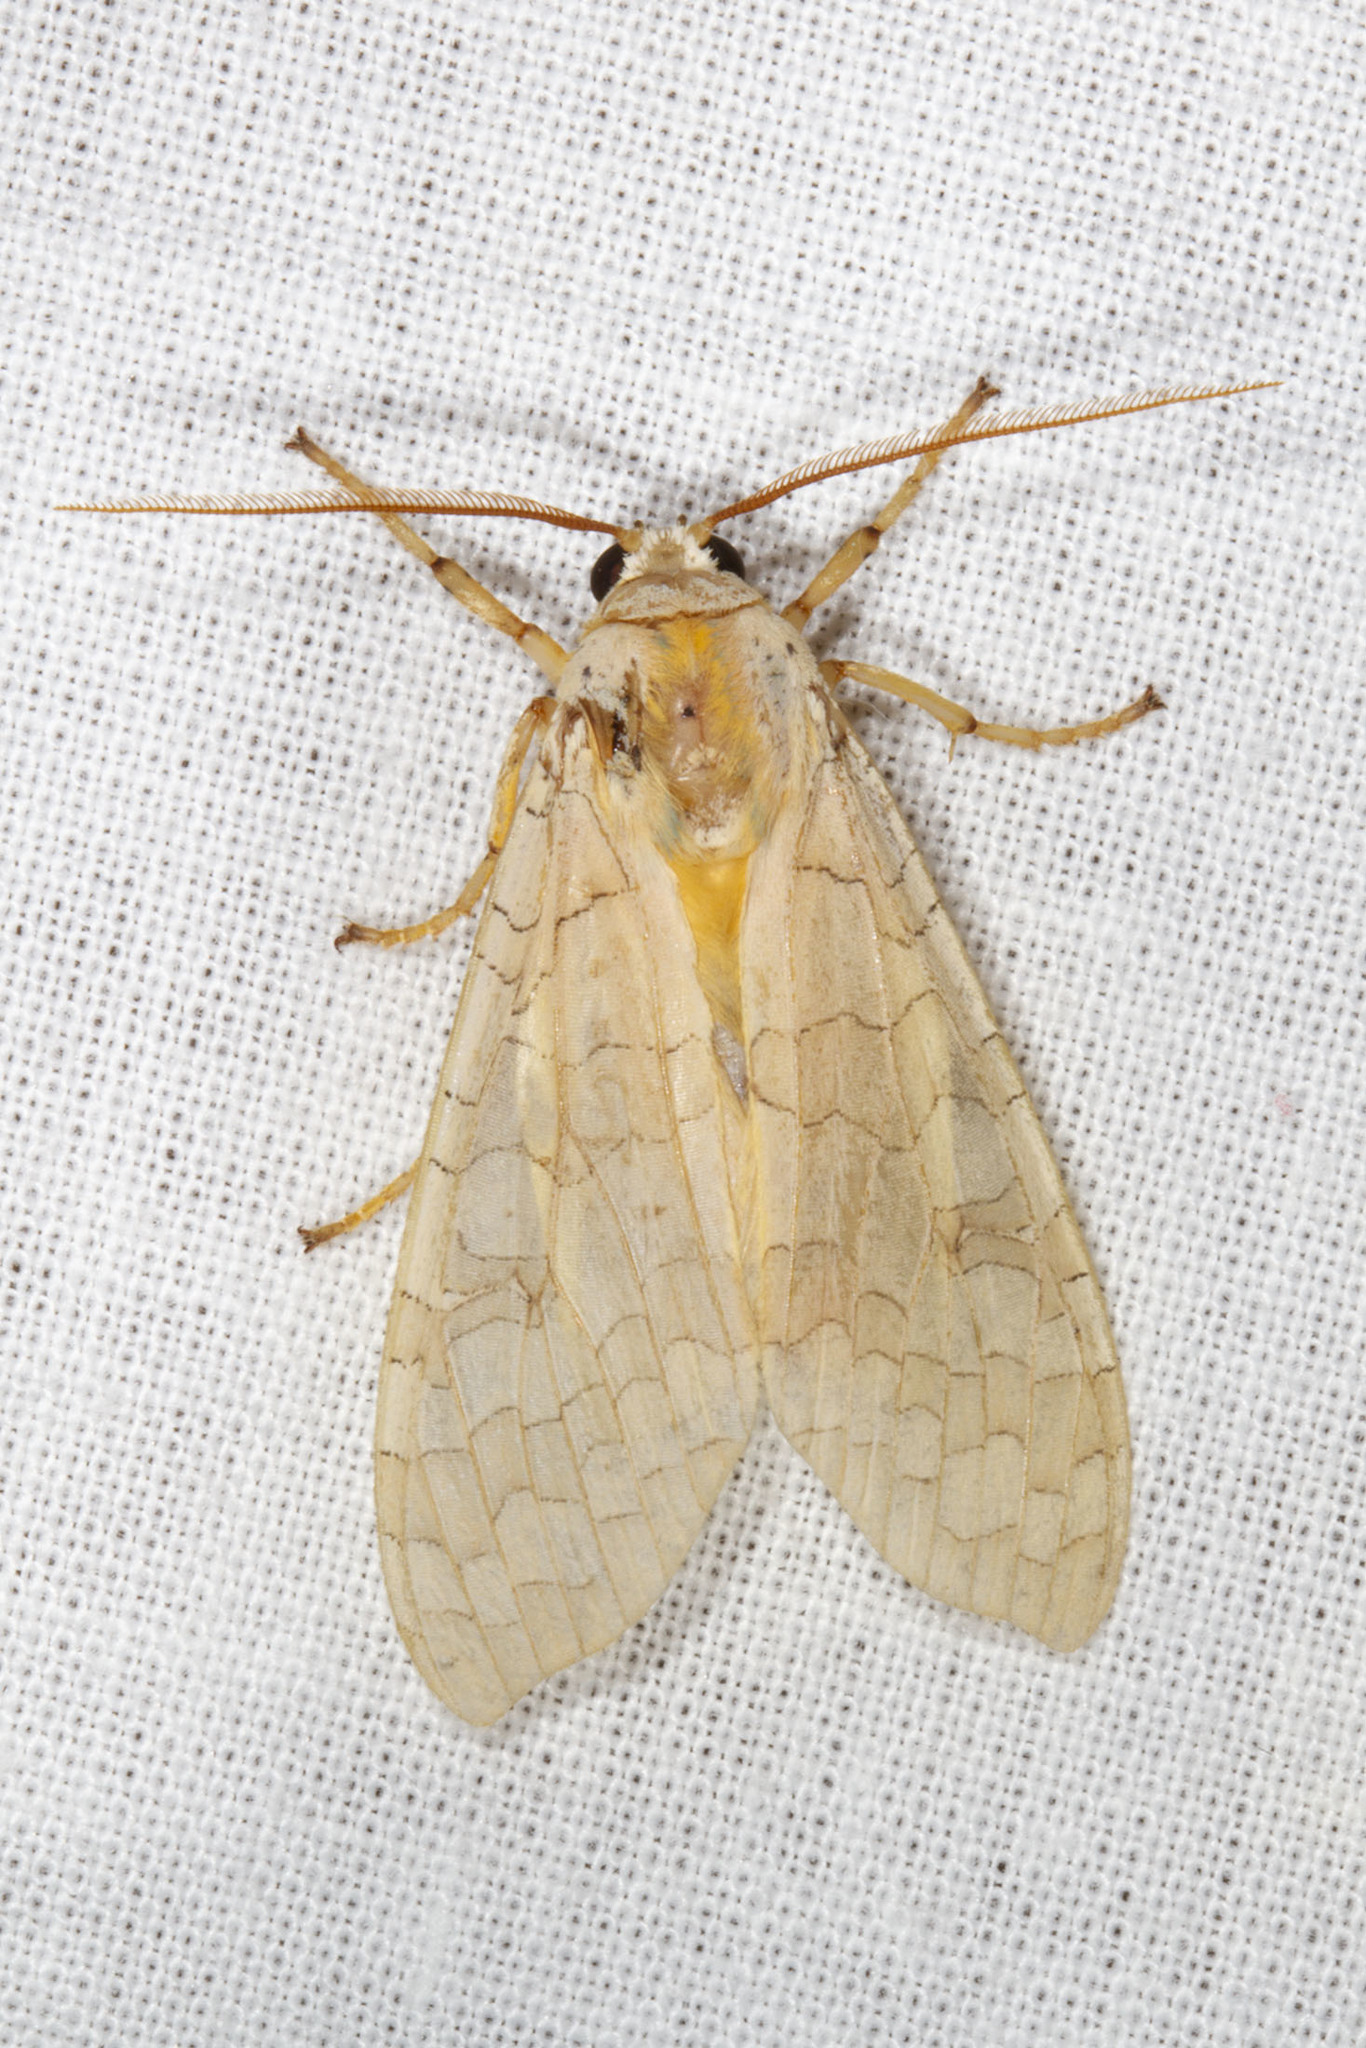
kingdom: Animalia
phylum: Arthropoda
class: Insecta
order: Lepidoptera
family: Erebidae
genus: Halysidota
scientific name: Halysidota
